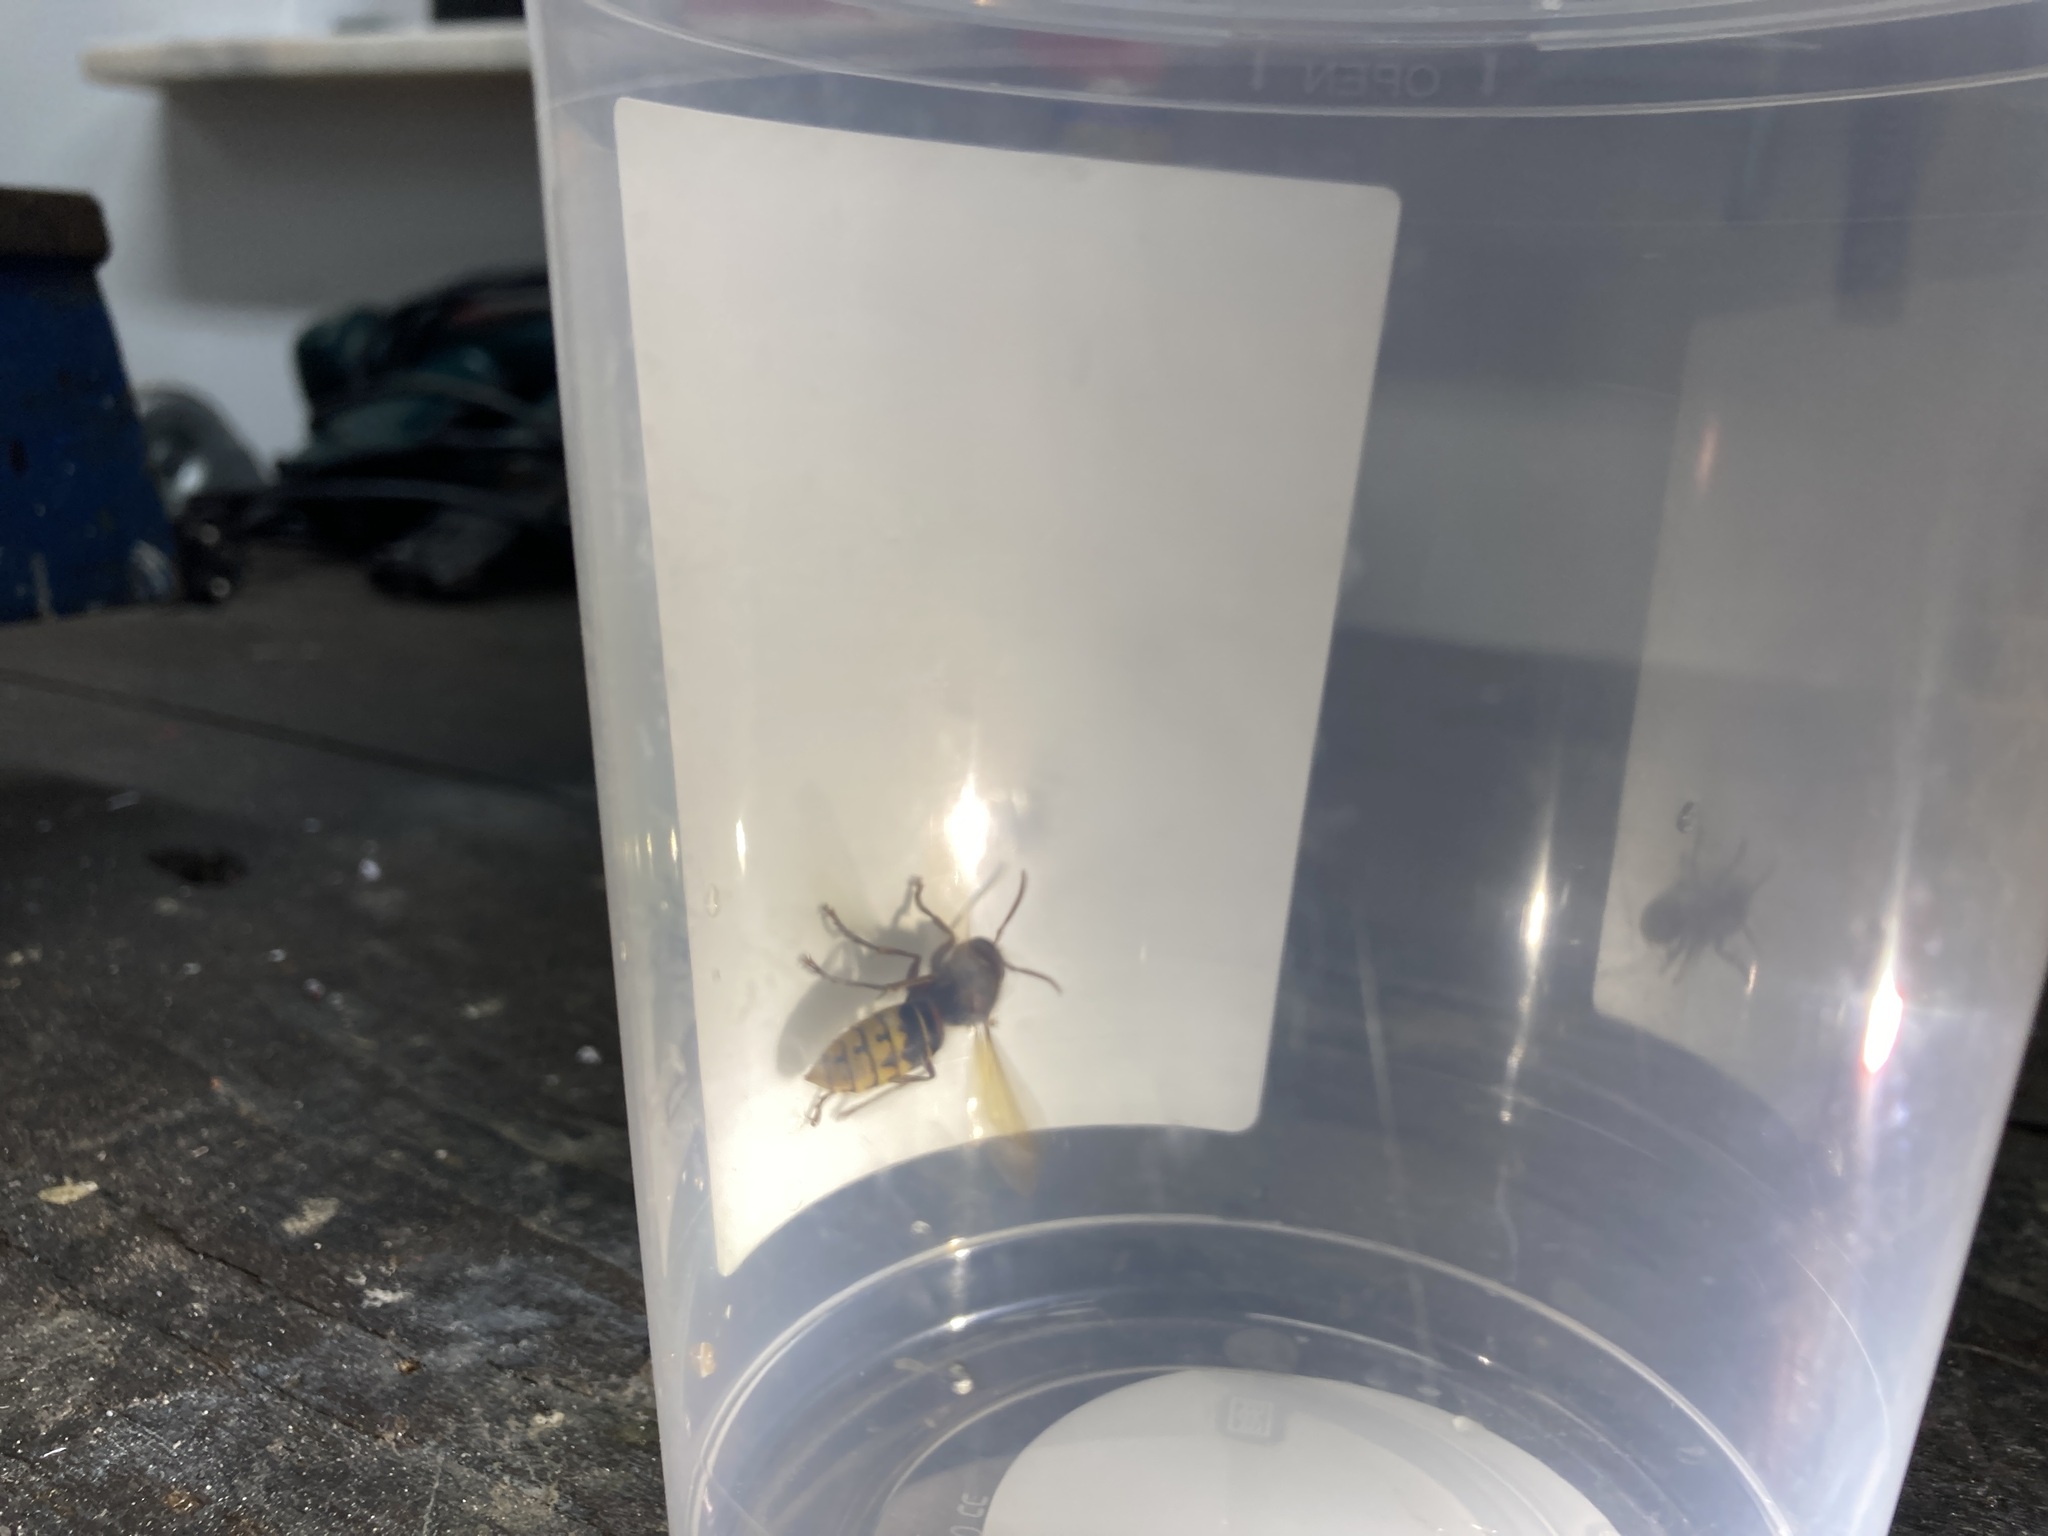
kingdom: Animalia
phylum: Arthropoda
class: Insecta
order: Hymenoptera
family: Vespidae
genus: Vespa
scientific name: Vespa crabro
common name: Hornet
